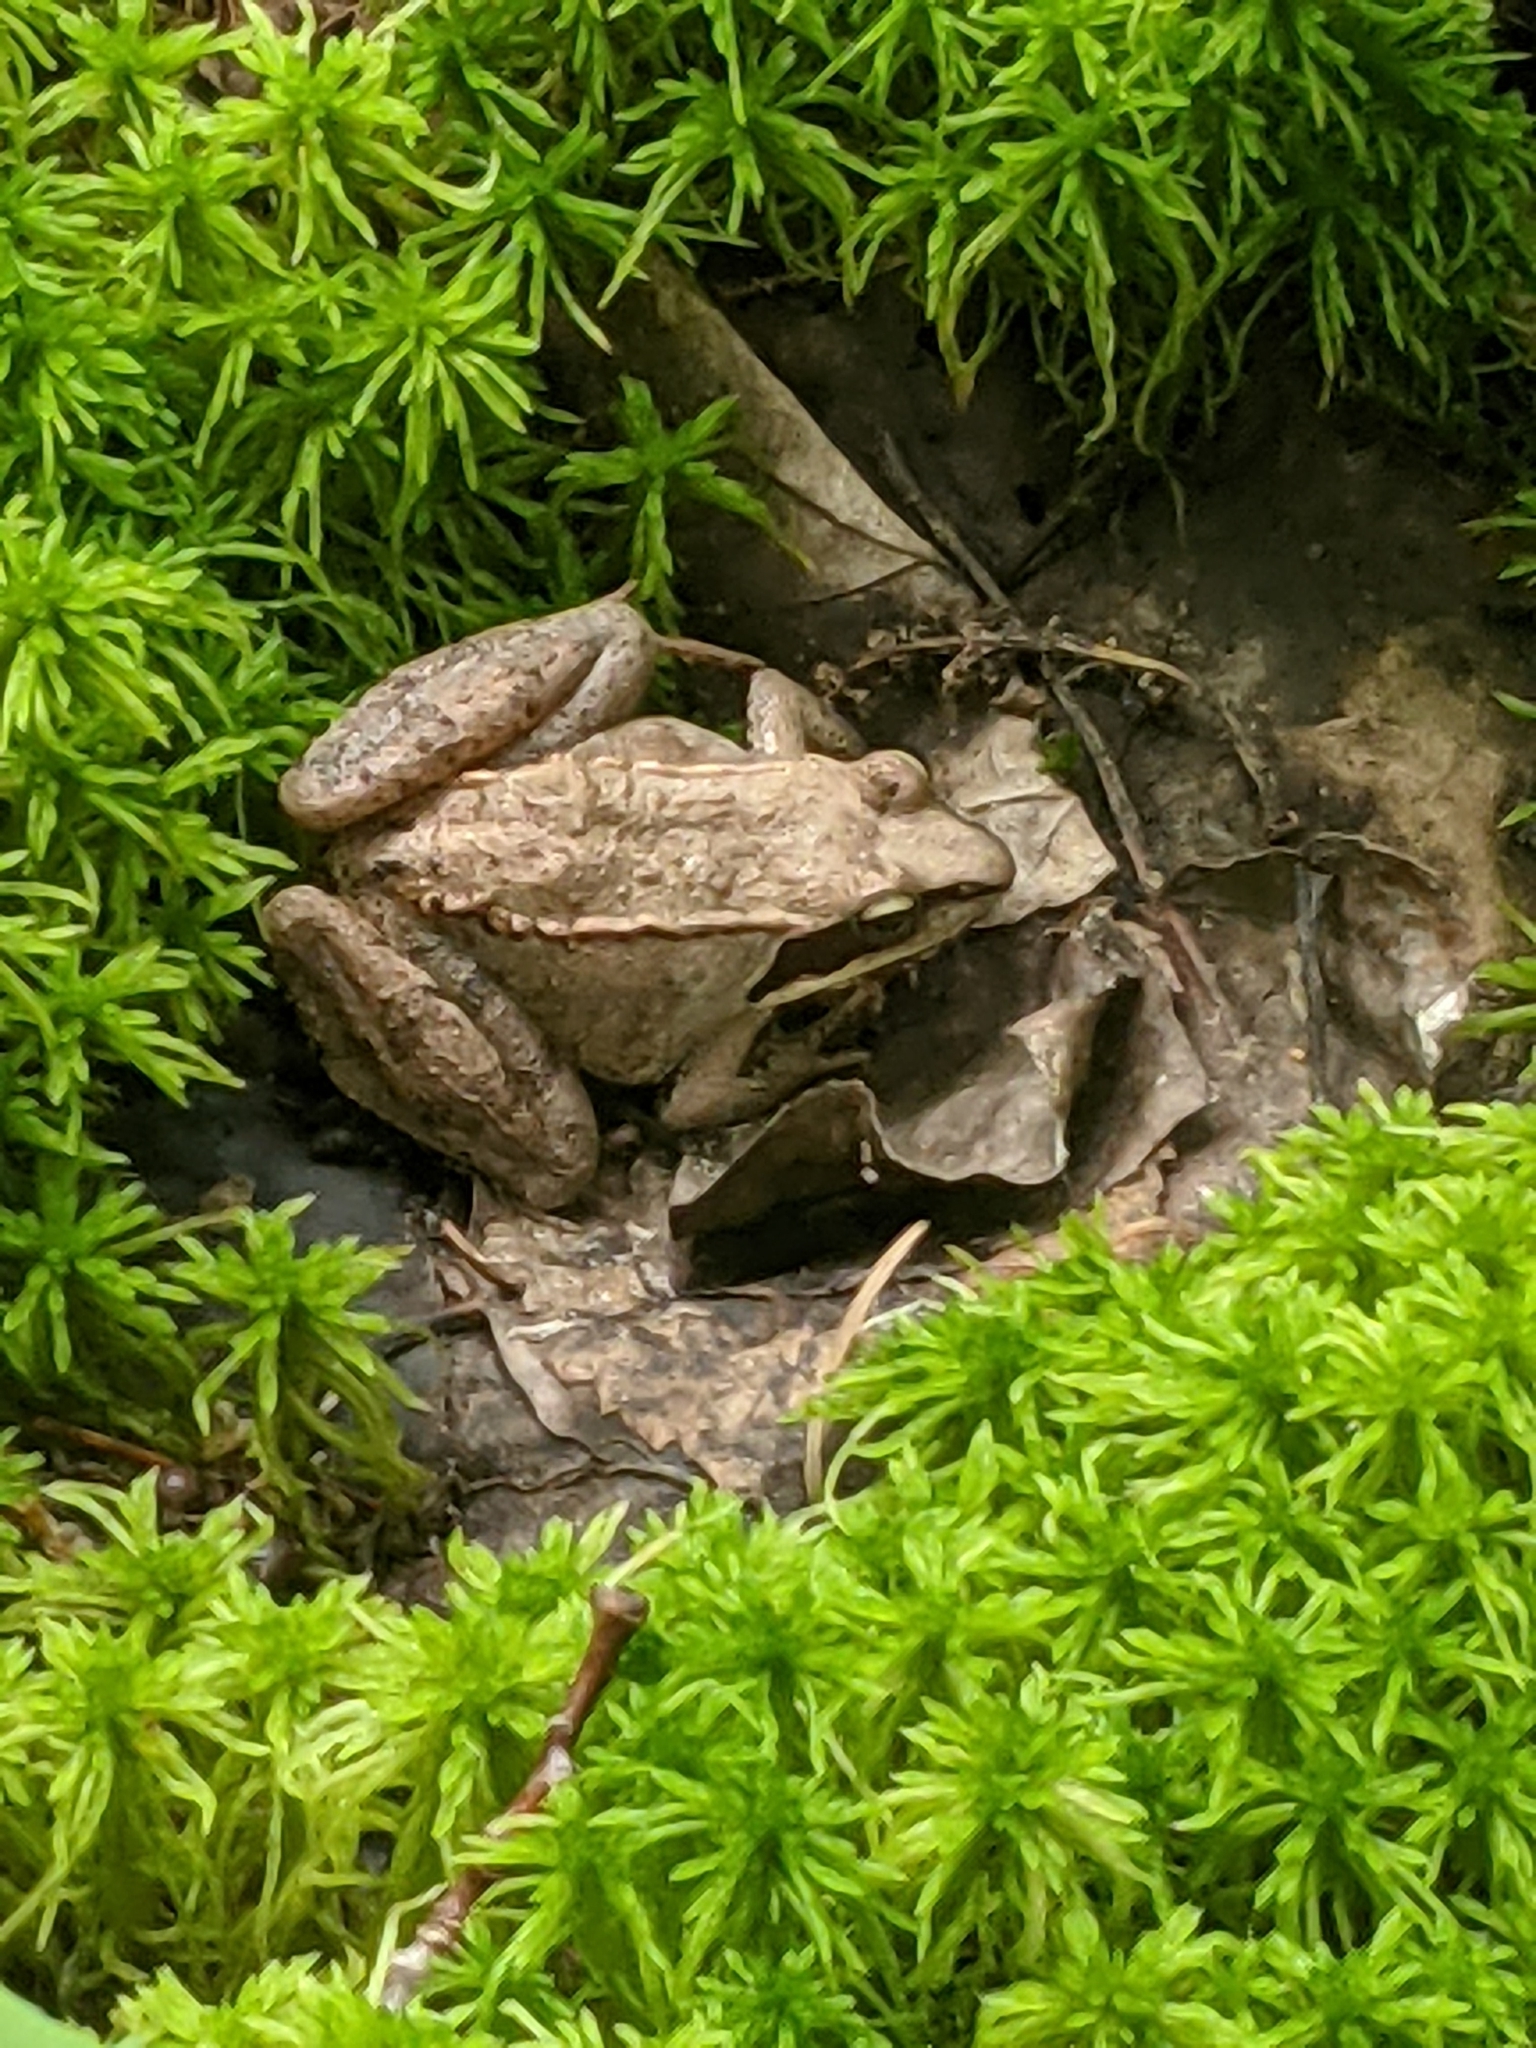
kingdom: Animalia
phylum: Chordata
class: Amphibia
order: Anura
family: Ranidae
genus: Lithobates
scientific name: Lithobates sylvaticus
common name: Wood frog
